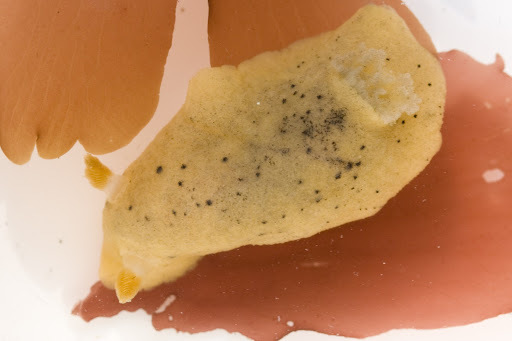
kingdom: Animalia
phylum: Mollusca
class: Gastropoda
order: Nudibranchia
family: Discodorididae
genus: Geitodoris
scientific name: Geitodoris heathi
